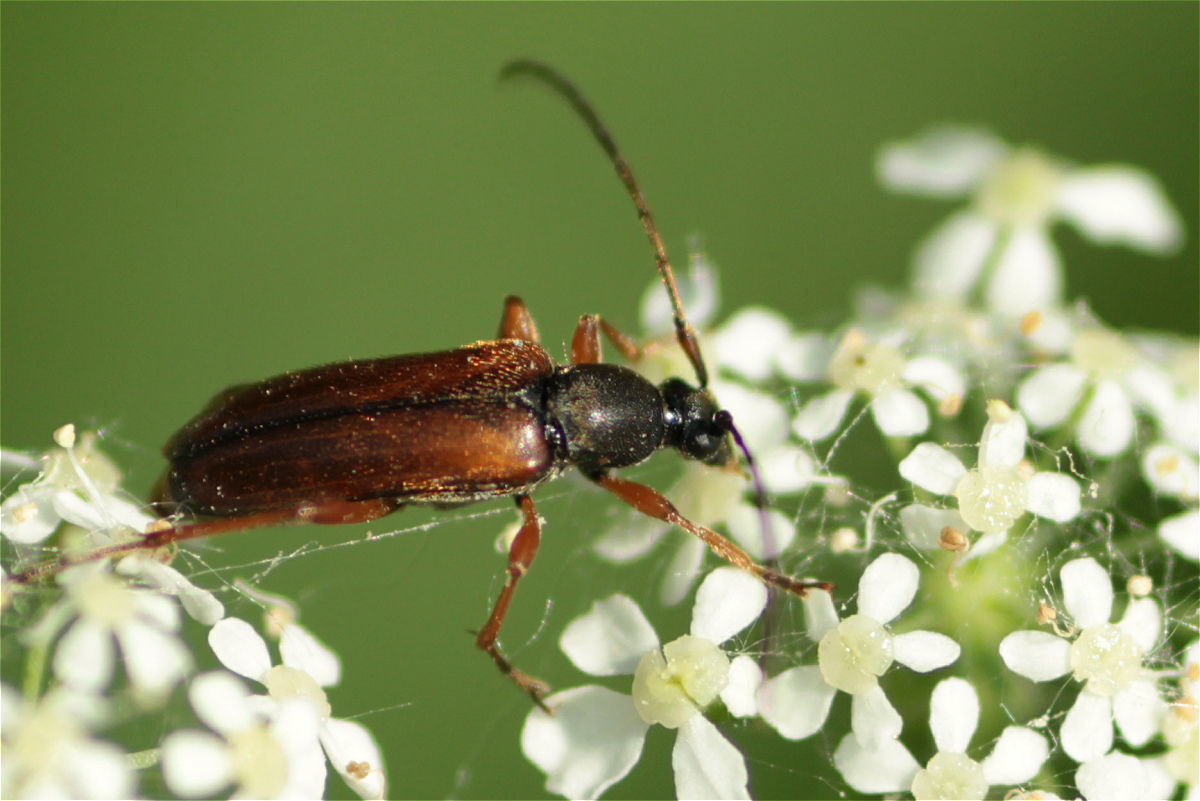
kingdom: Animalia
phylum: Arthropoda
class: Insecta
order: Coleoptera
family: Cerambycidae
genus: Alosterna
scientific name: Alosterna tabacicolor
